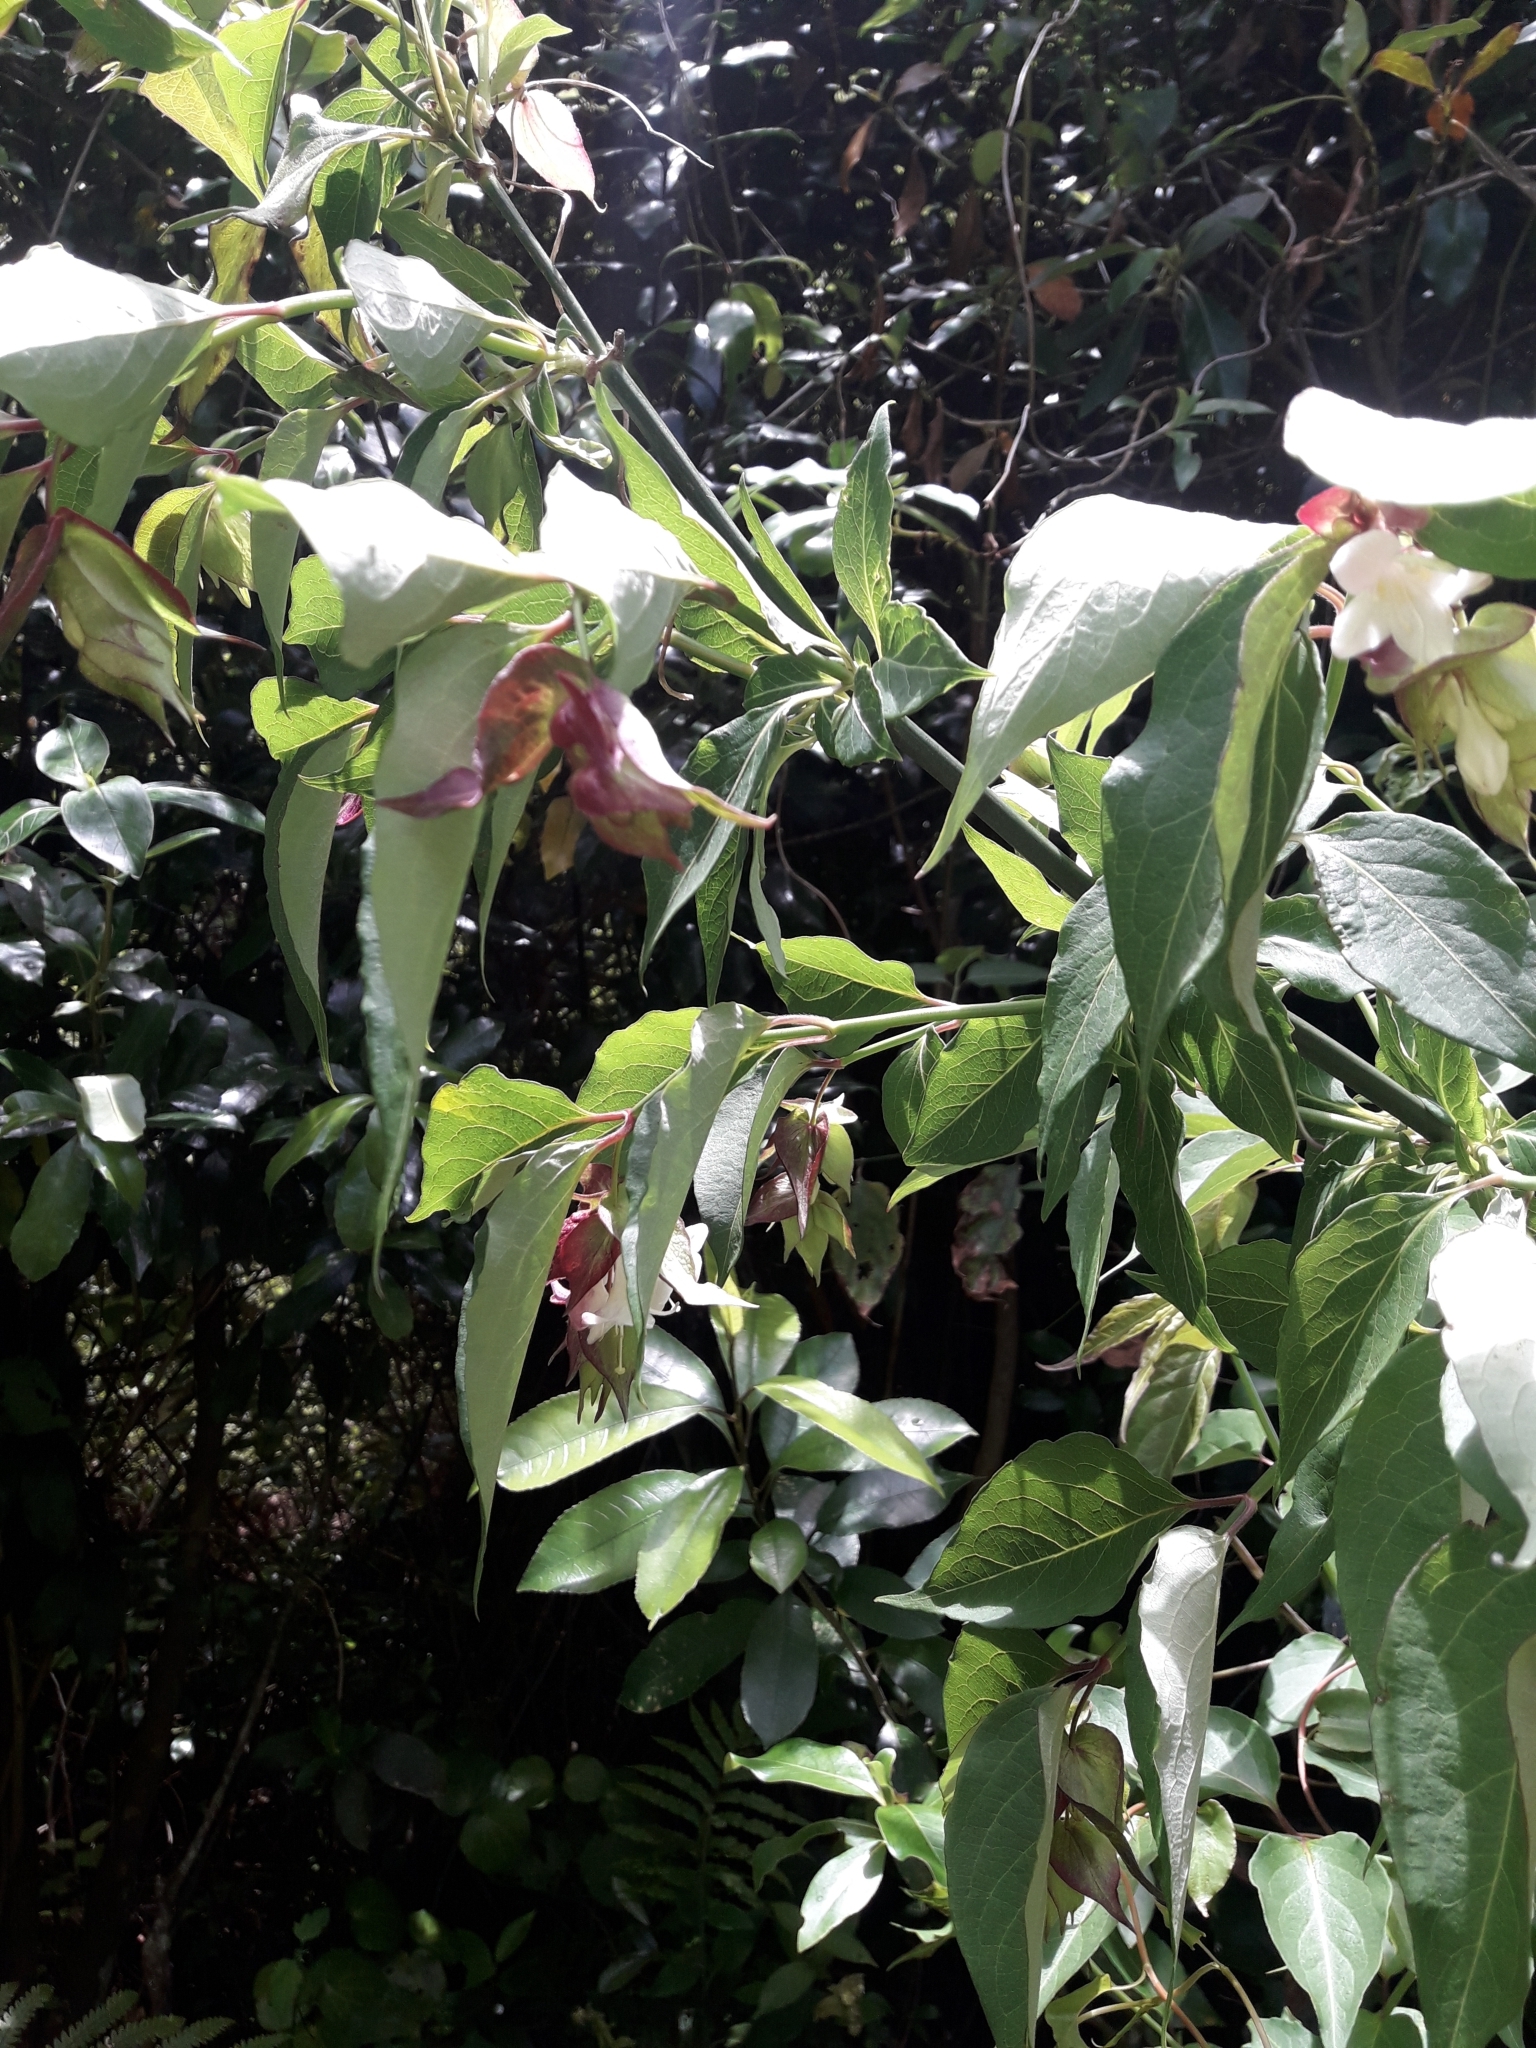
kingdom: Plantae
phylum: Tracheophyta
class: Magnoliopsida
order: Dipsacales
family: Caprifoliaceae
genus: Leycesteria
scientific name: Leycesteria formosa
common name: Himalayan honeysuckle
